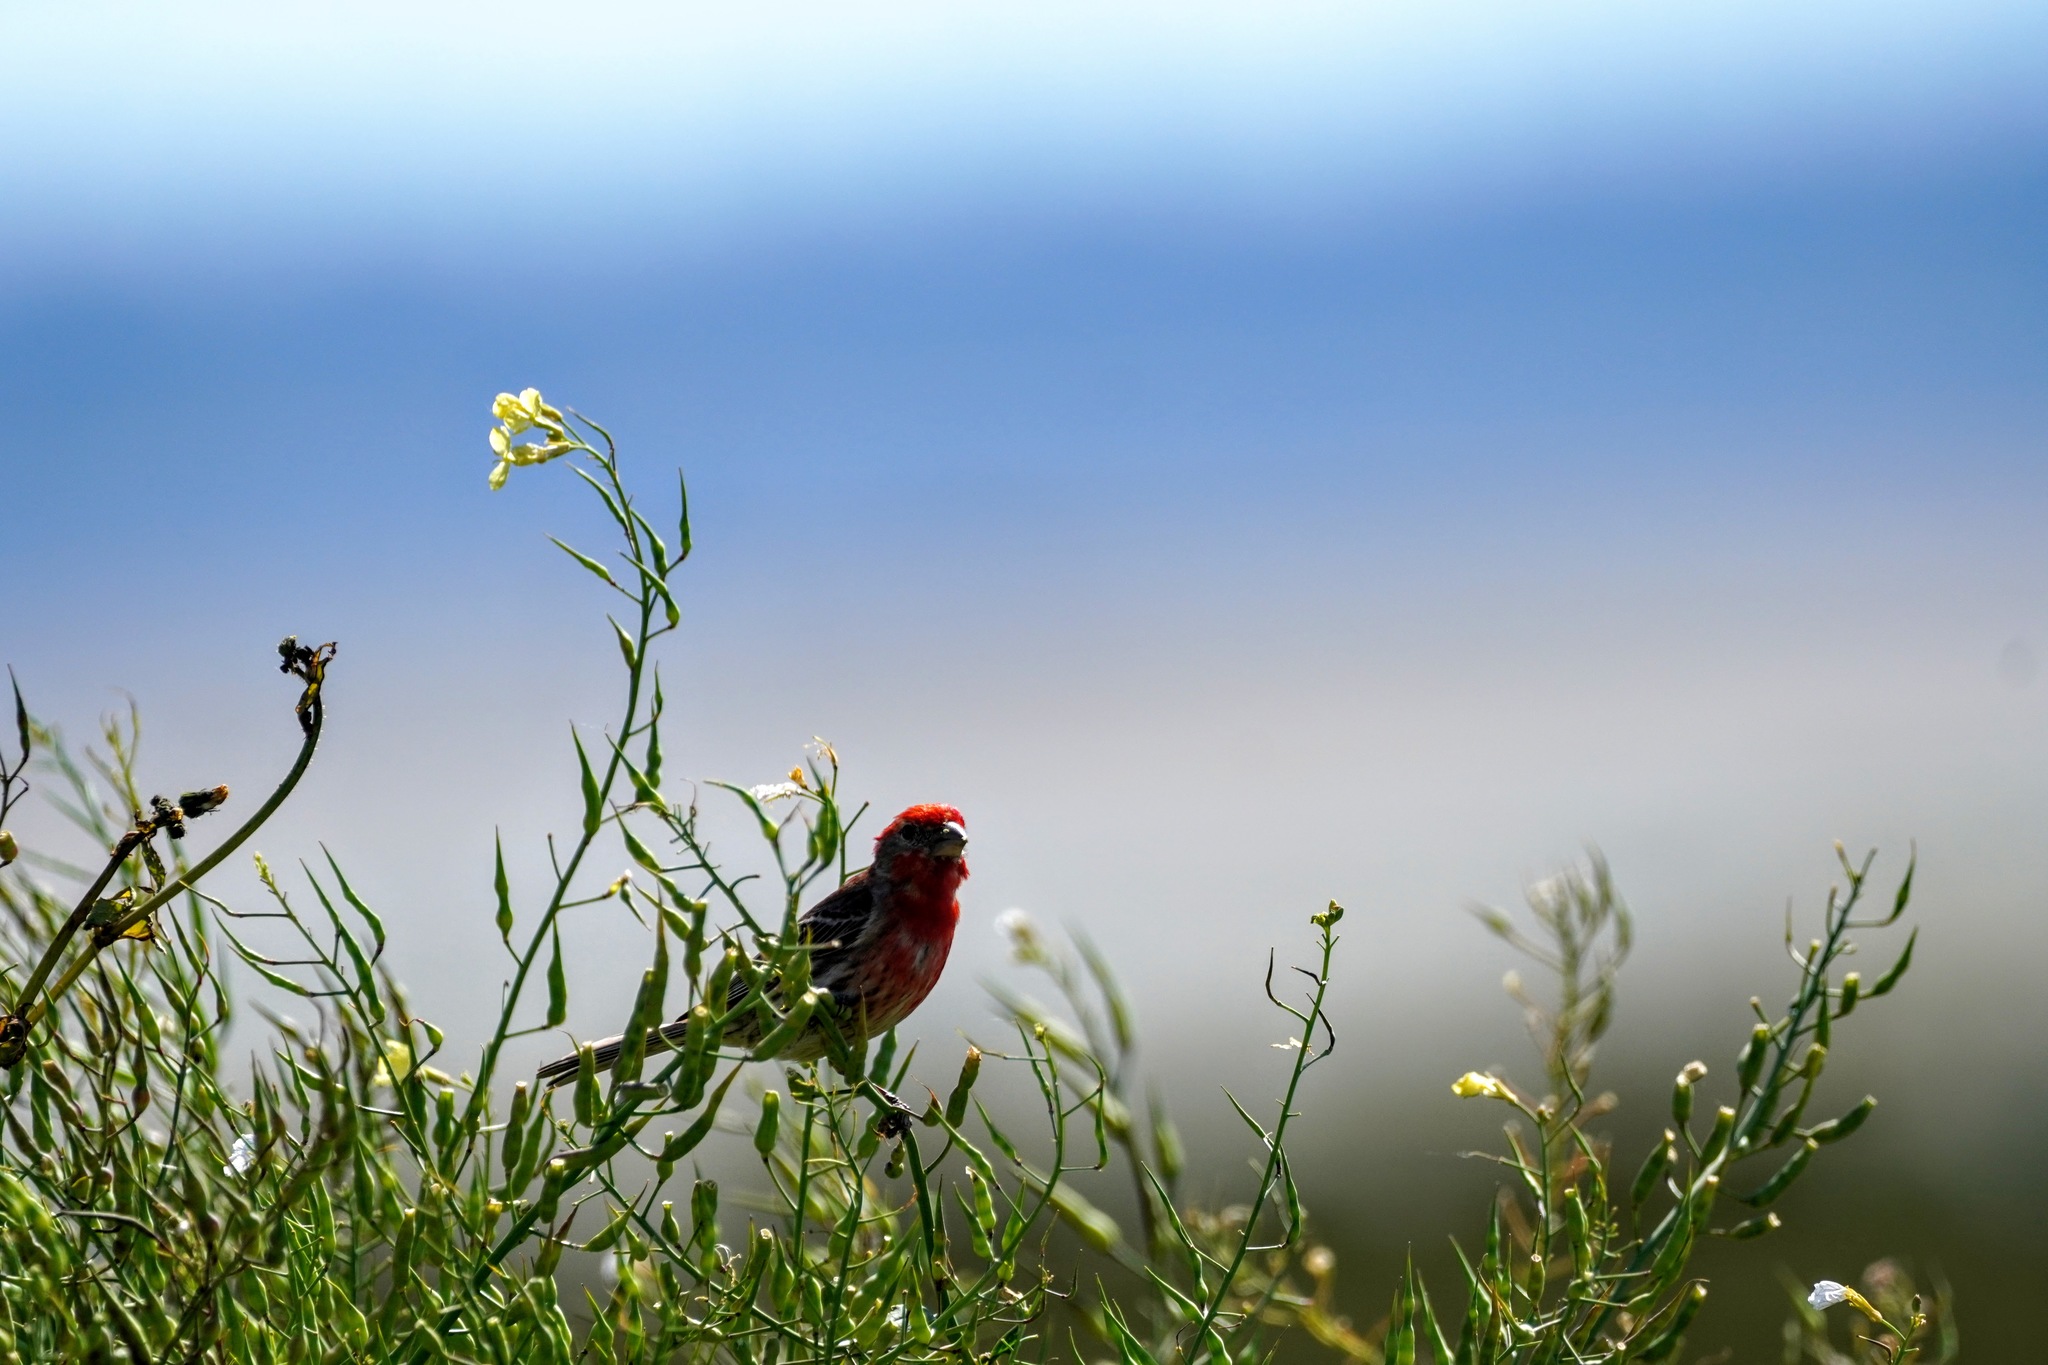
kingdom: Animalia
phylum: Chordata
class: Aves
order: Passeriformes
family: Fringillidae
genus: Haemorhous
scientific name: Haemorhous mexicanus
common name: House finch
